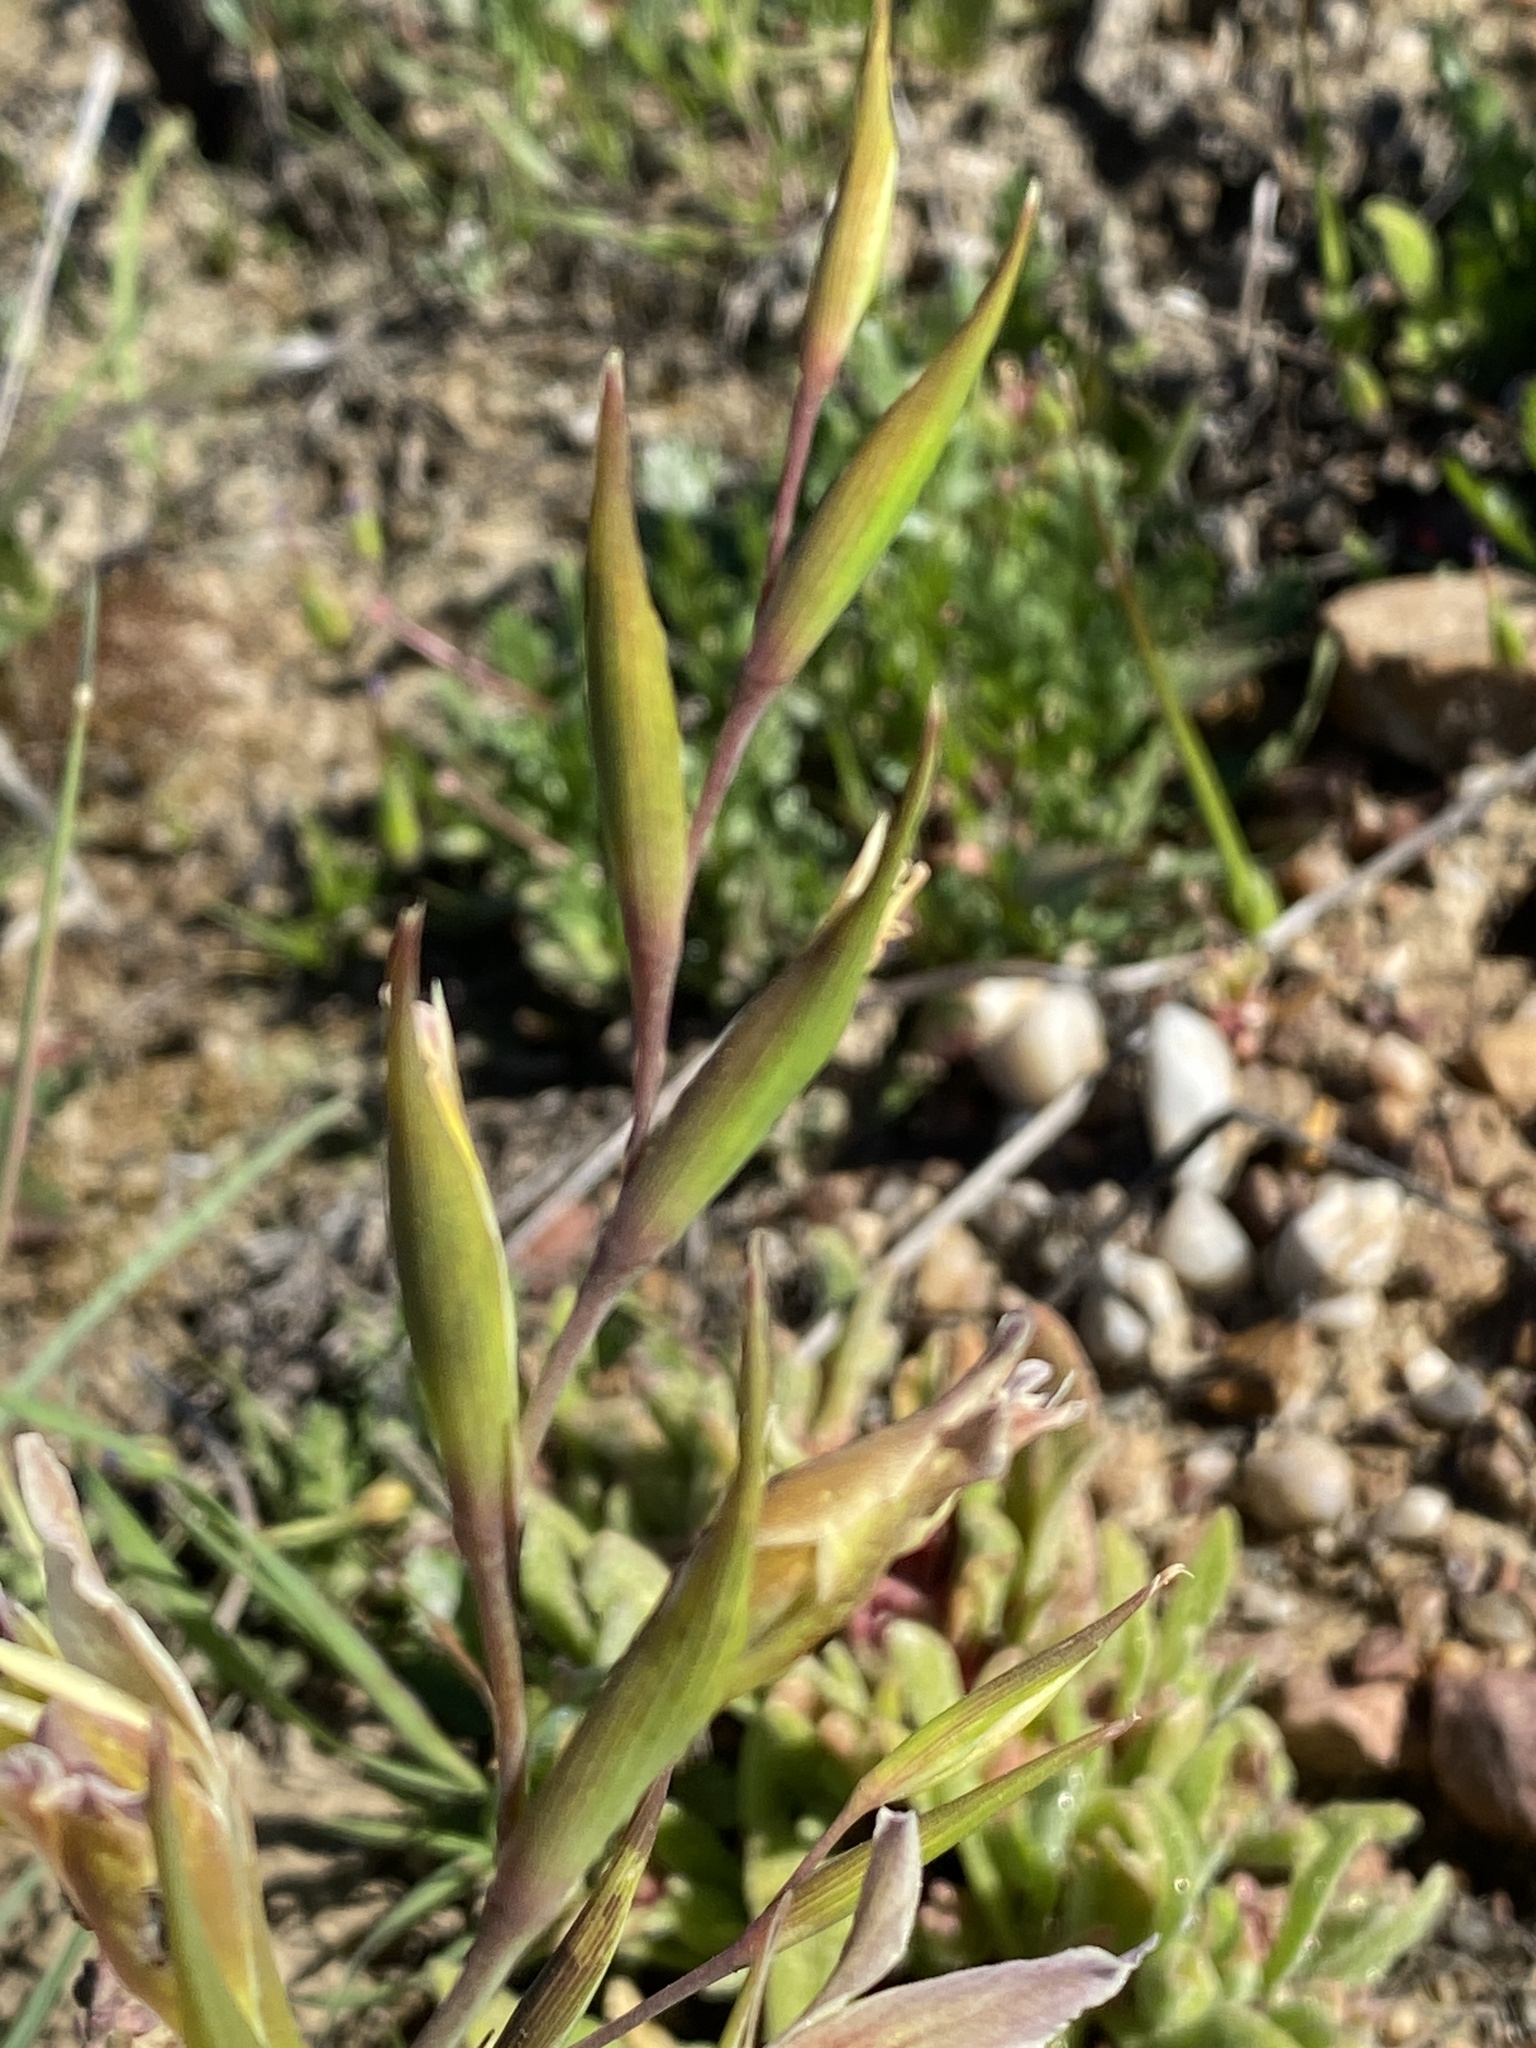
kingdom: Plantae
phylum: Tracheophyta
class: Liliopsida
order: Asparagales
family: Iridaceae
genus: Gladiolus
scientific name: Gladiolus scullyi
